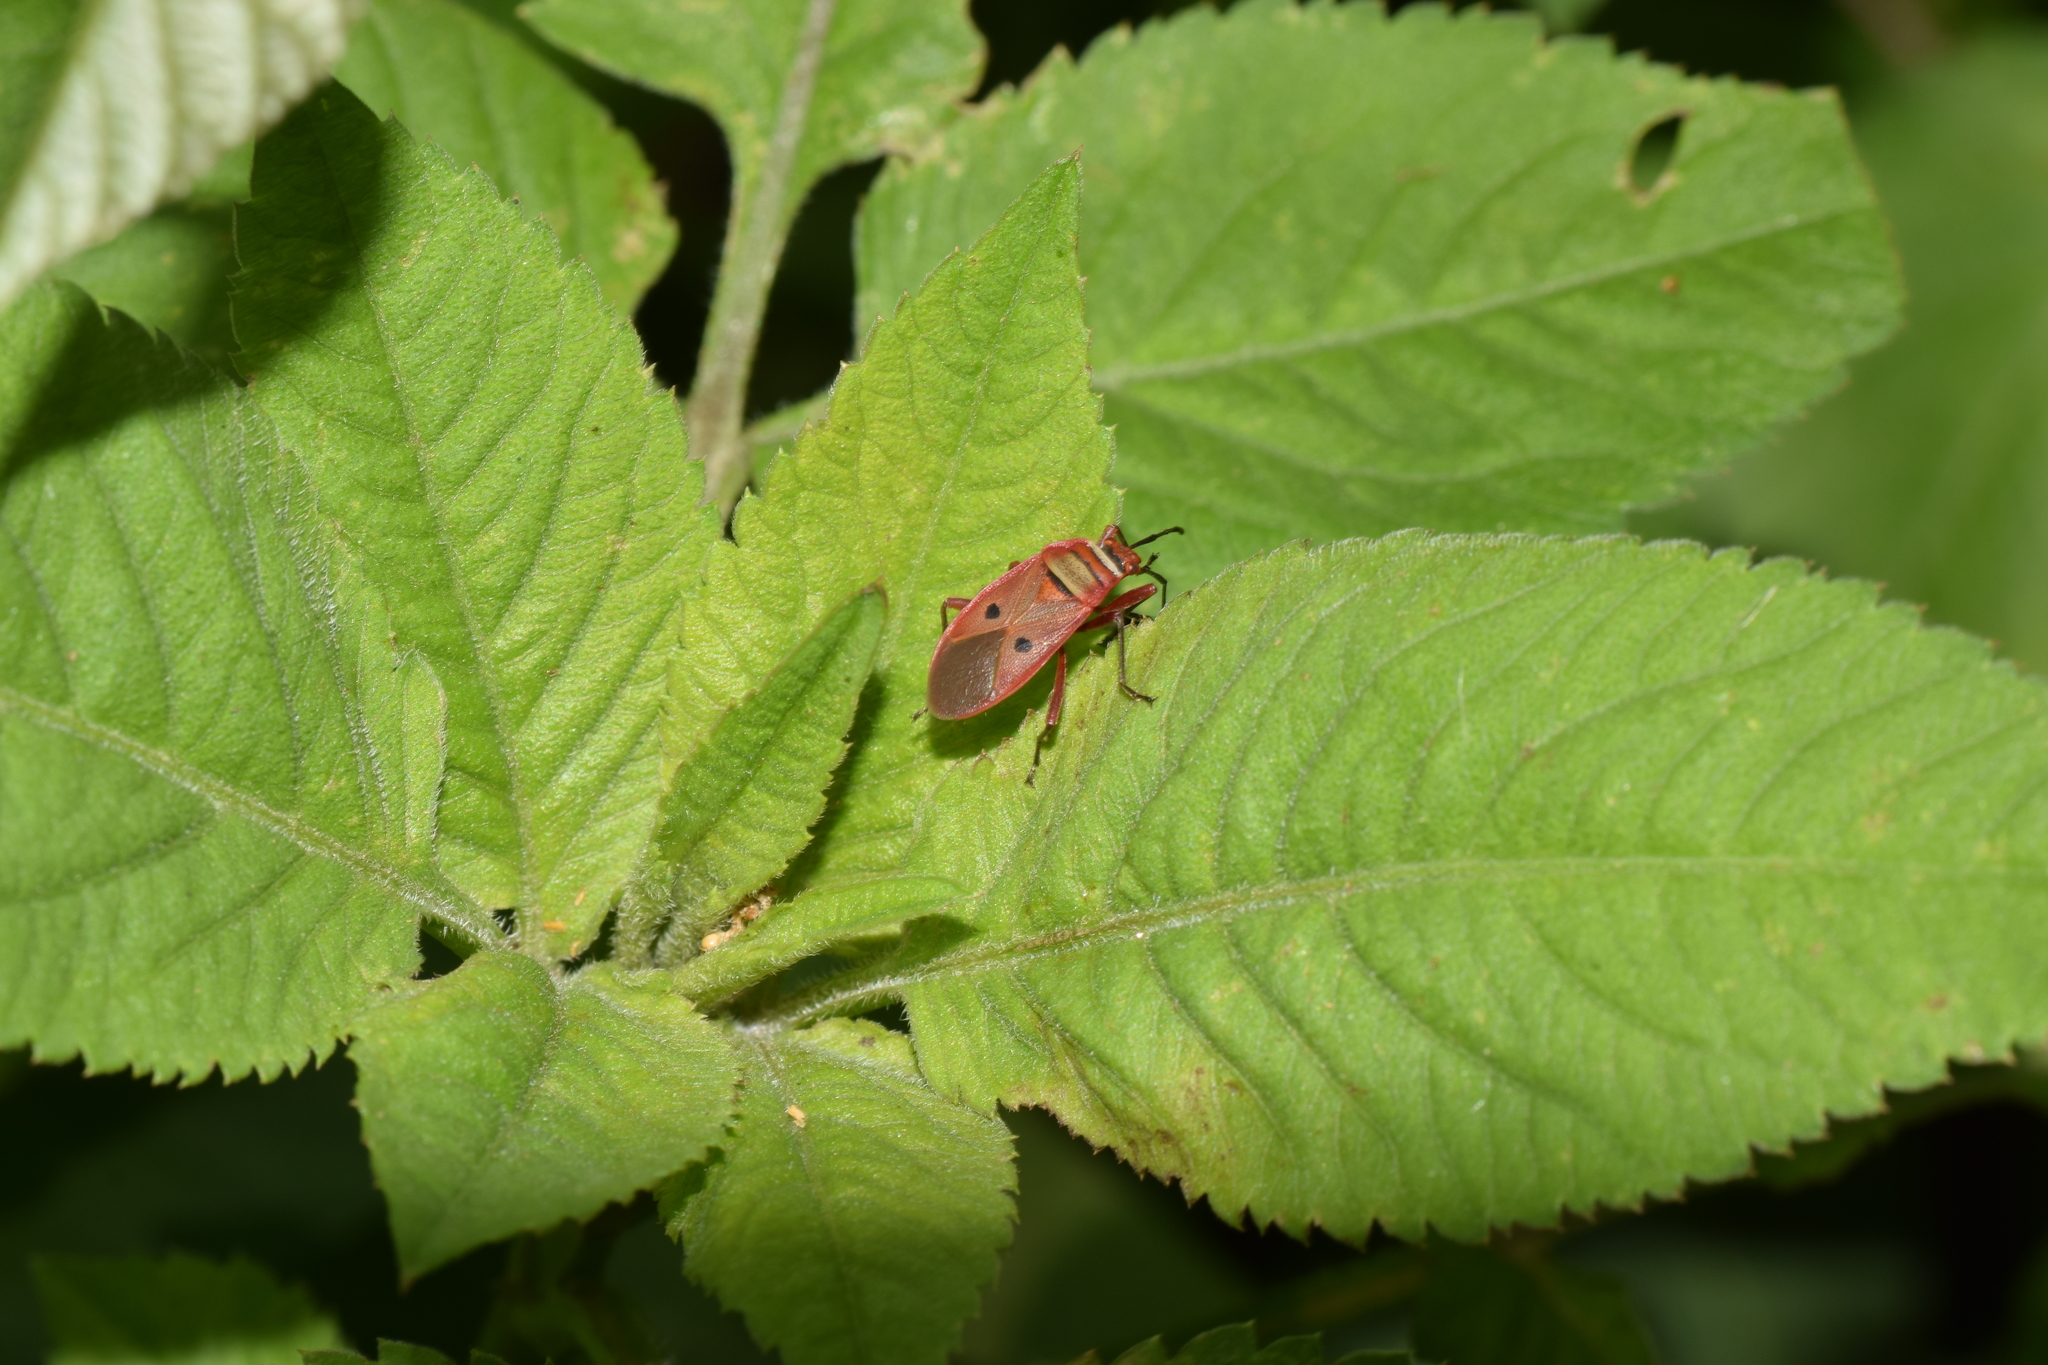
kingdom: Animalia
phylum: Arthropoda
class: Insecta
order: Hemiptera
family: Pyrrhocoridae
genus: Pyrrhopeplus
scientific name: Pyrrhopeplus posthumus
